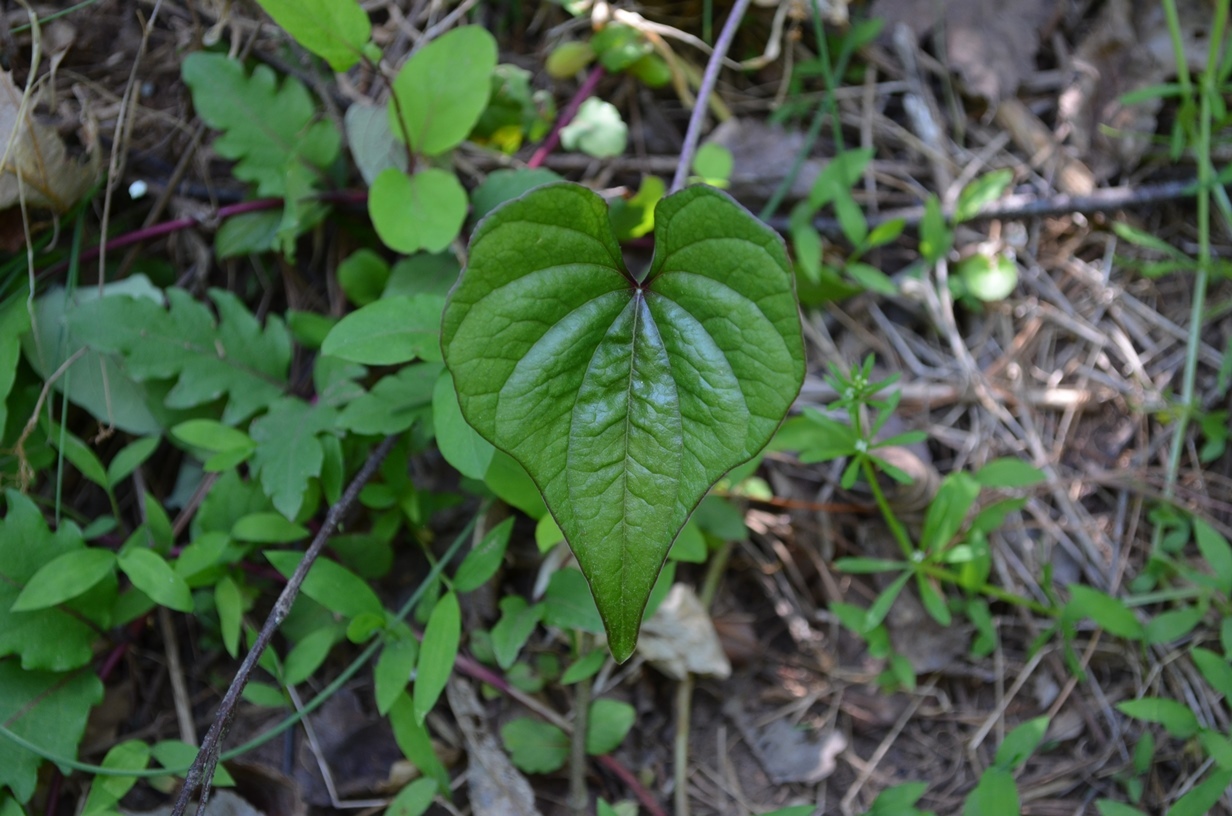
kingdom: Plantae
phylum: Tracheophyta
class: Liliopsida
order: Dioscoreales
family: Dioscoreaceae
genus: Dioscorea
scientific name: Dioscorea polystachya
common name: Chinese yam
